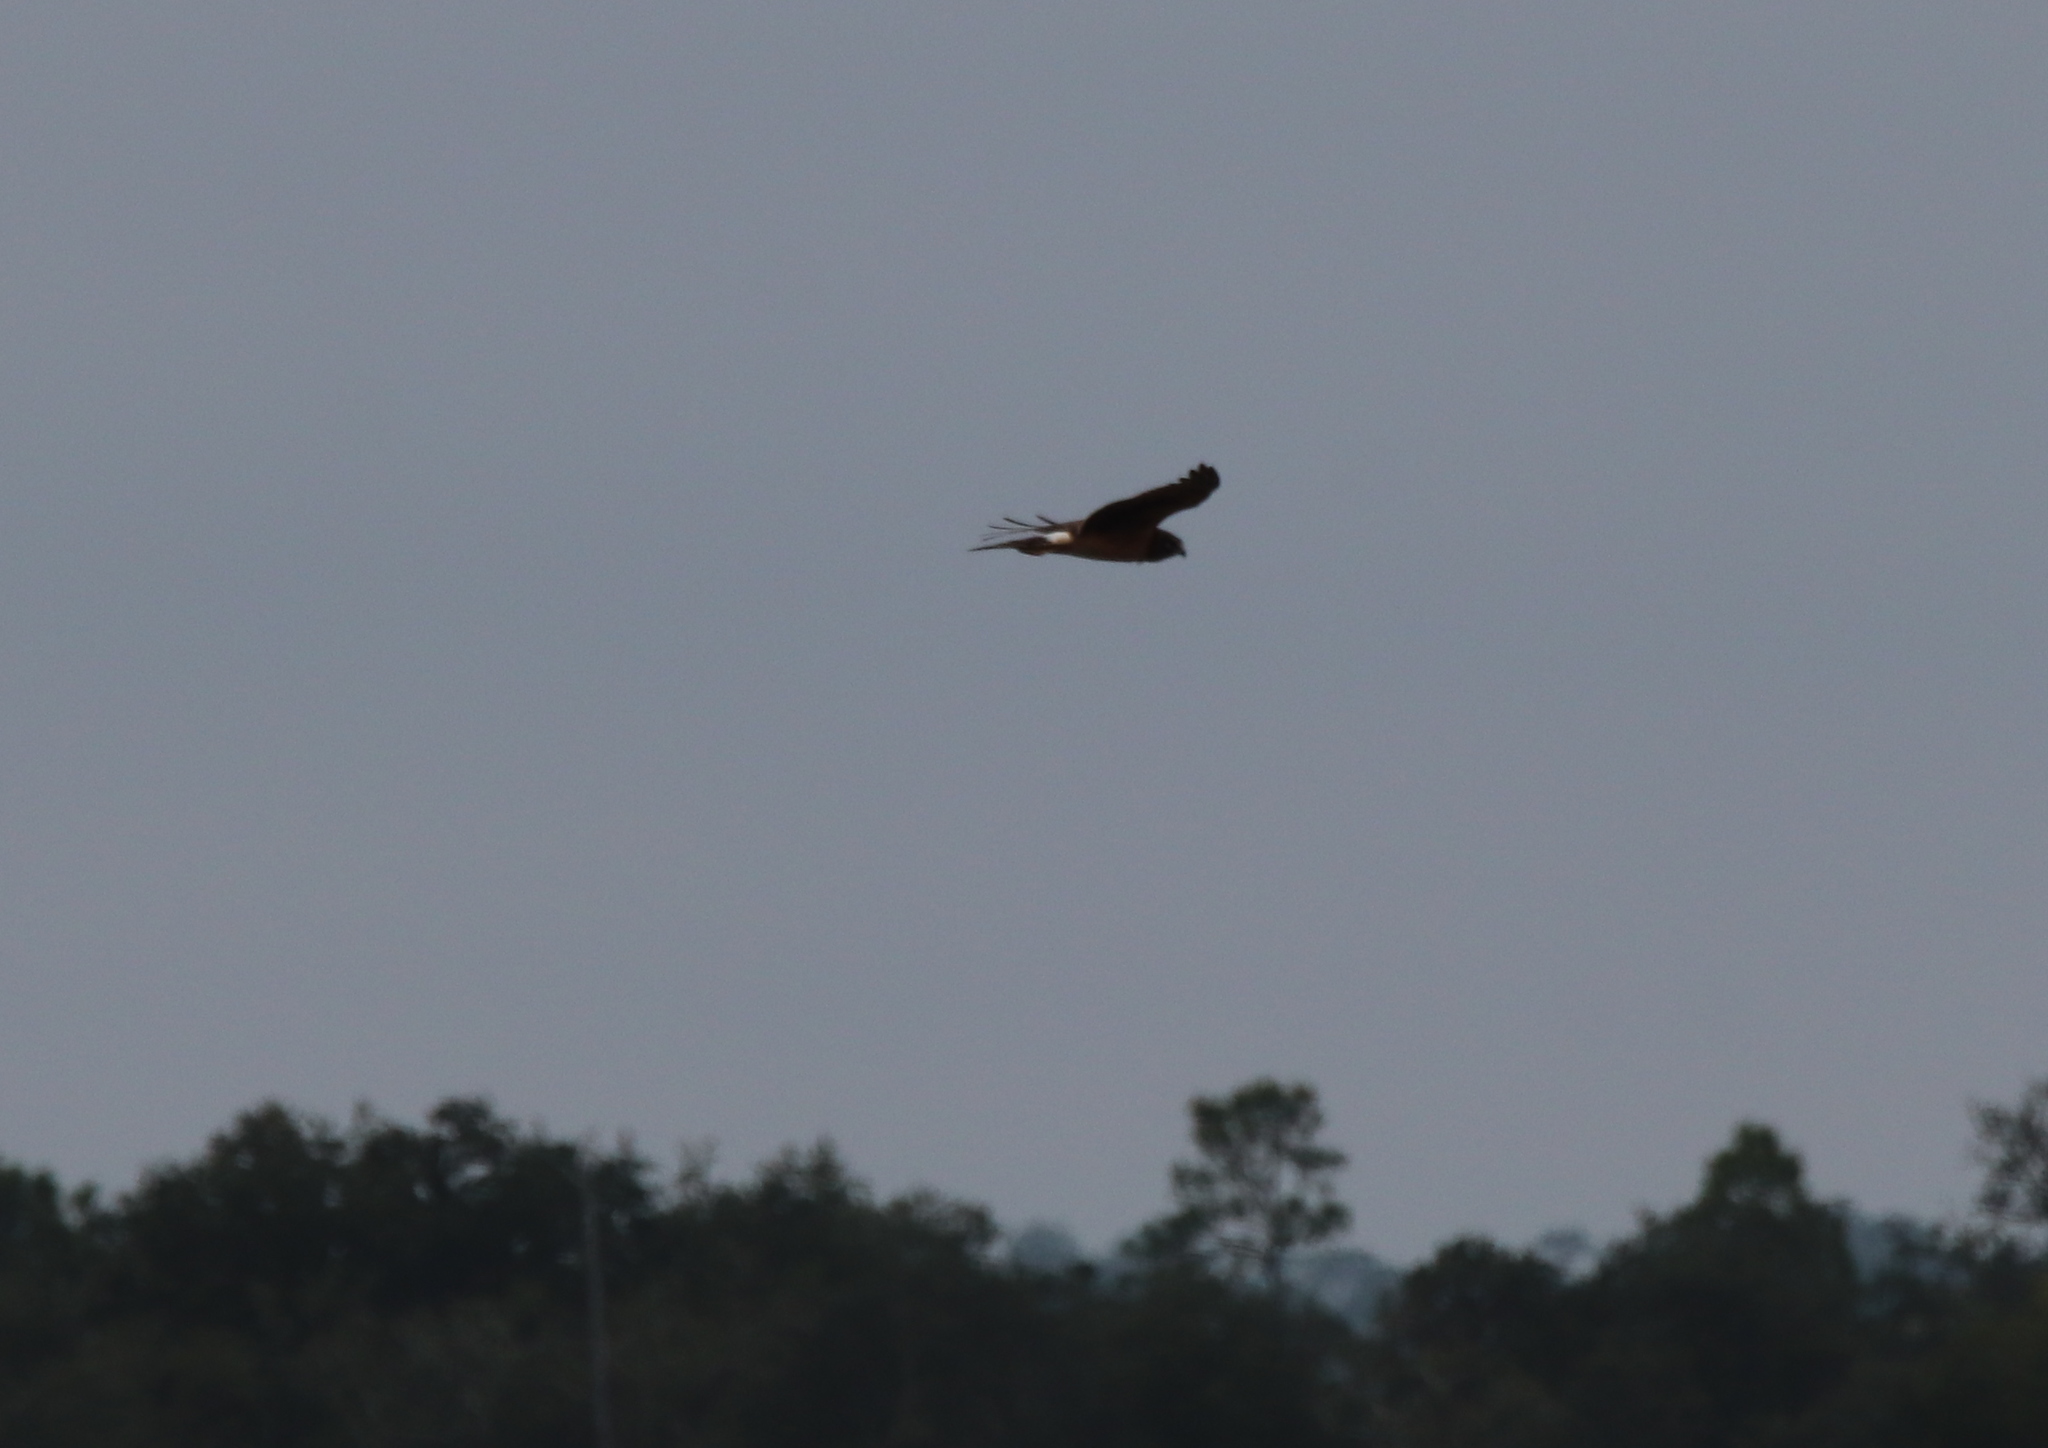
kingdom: Animalia
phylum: Chordata
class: Aves
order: Accipitriformes
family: Accipitridae
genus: Circus
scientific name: Circus cyaneus
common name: Hen harrier
